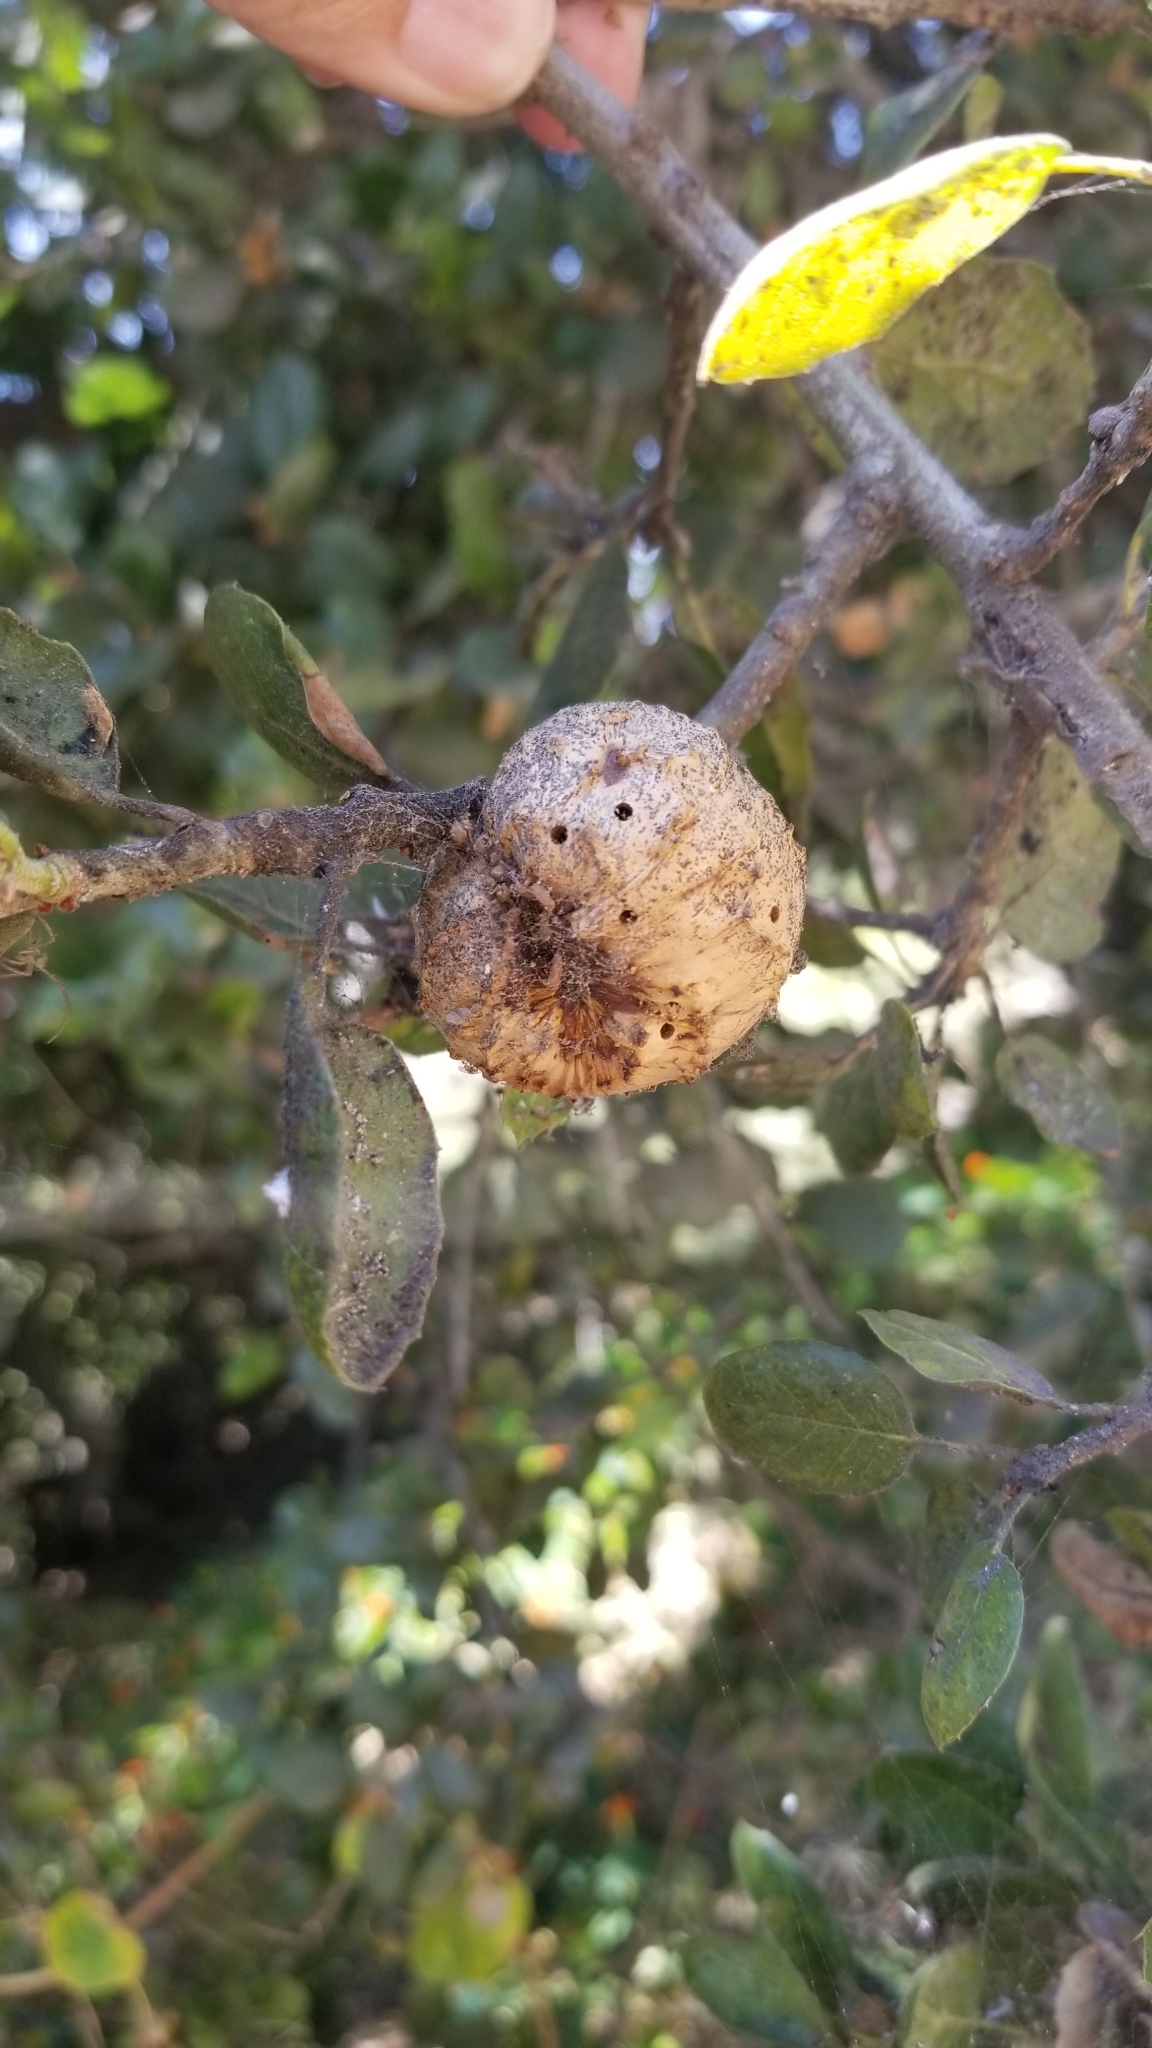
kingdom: Animalia
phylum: Arthropoda
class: Insecta
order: Hymenoptera
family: Cynipidae
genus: Amphibolips
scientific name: Amphibolips quercuspomiformis
